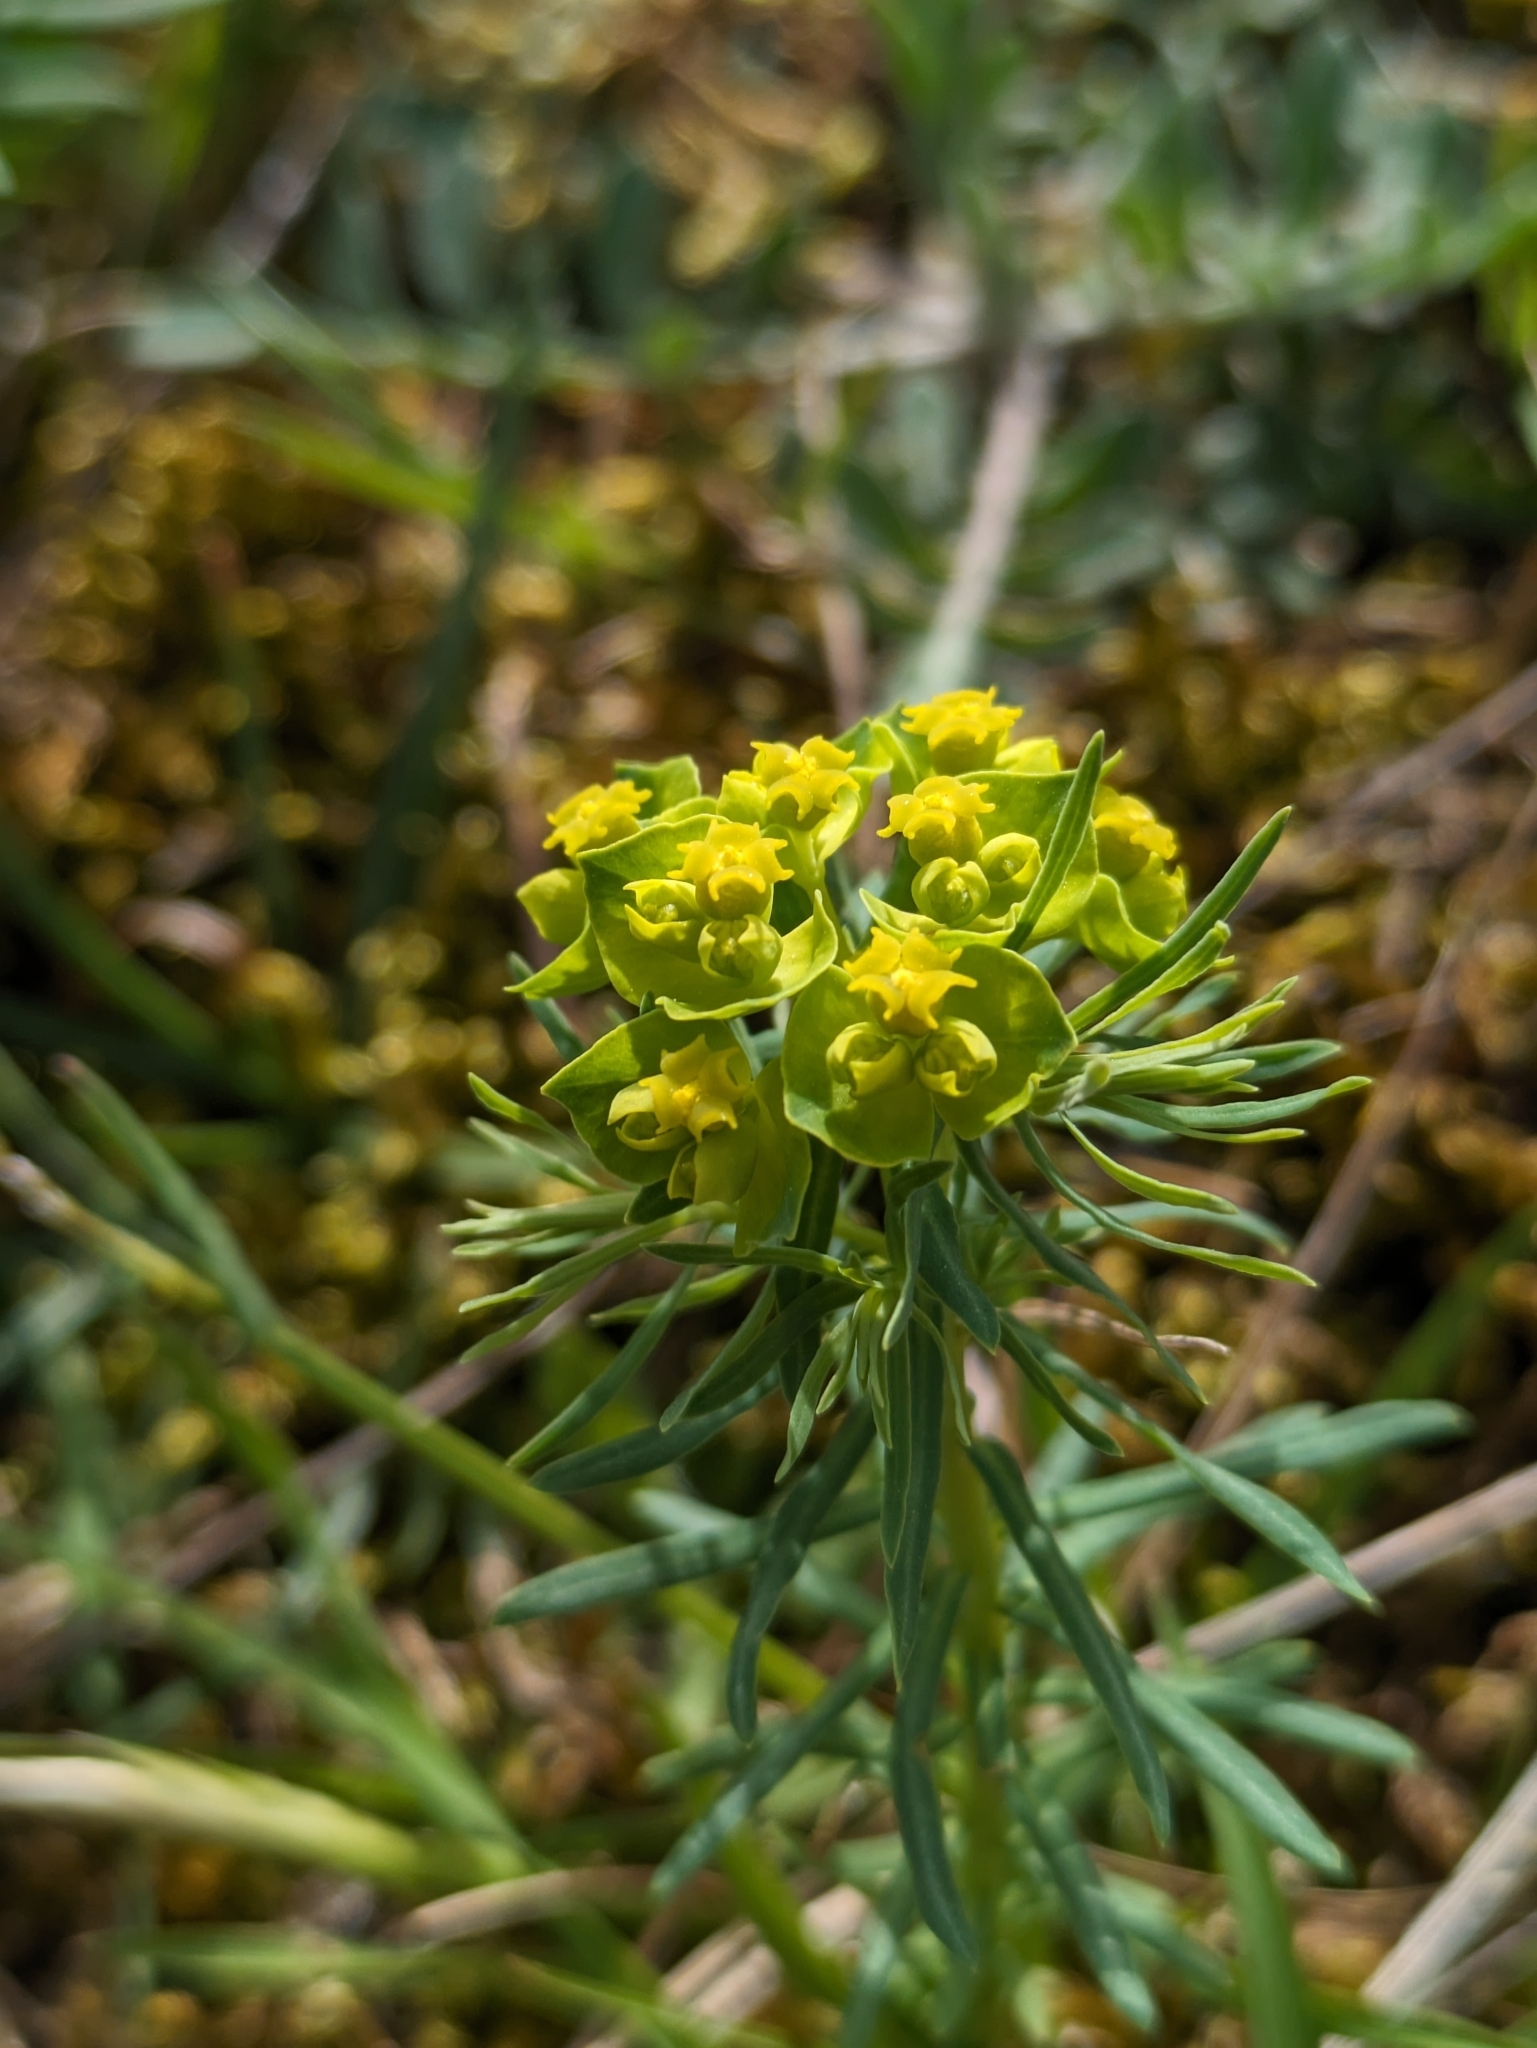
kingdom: Plantae
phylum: Tracheophyta
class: Magnoliopsida
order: Malpighiales
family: Euphorbiaceae
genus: Euphorbia
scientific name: Euphorbia cyparissias
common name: Cypress spurge
